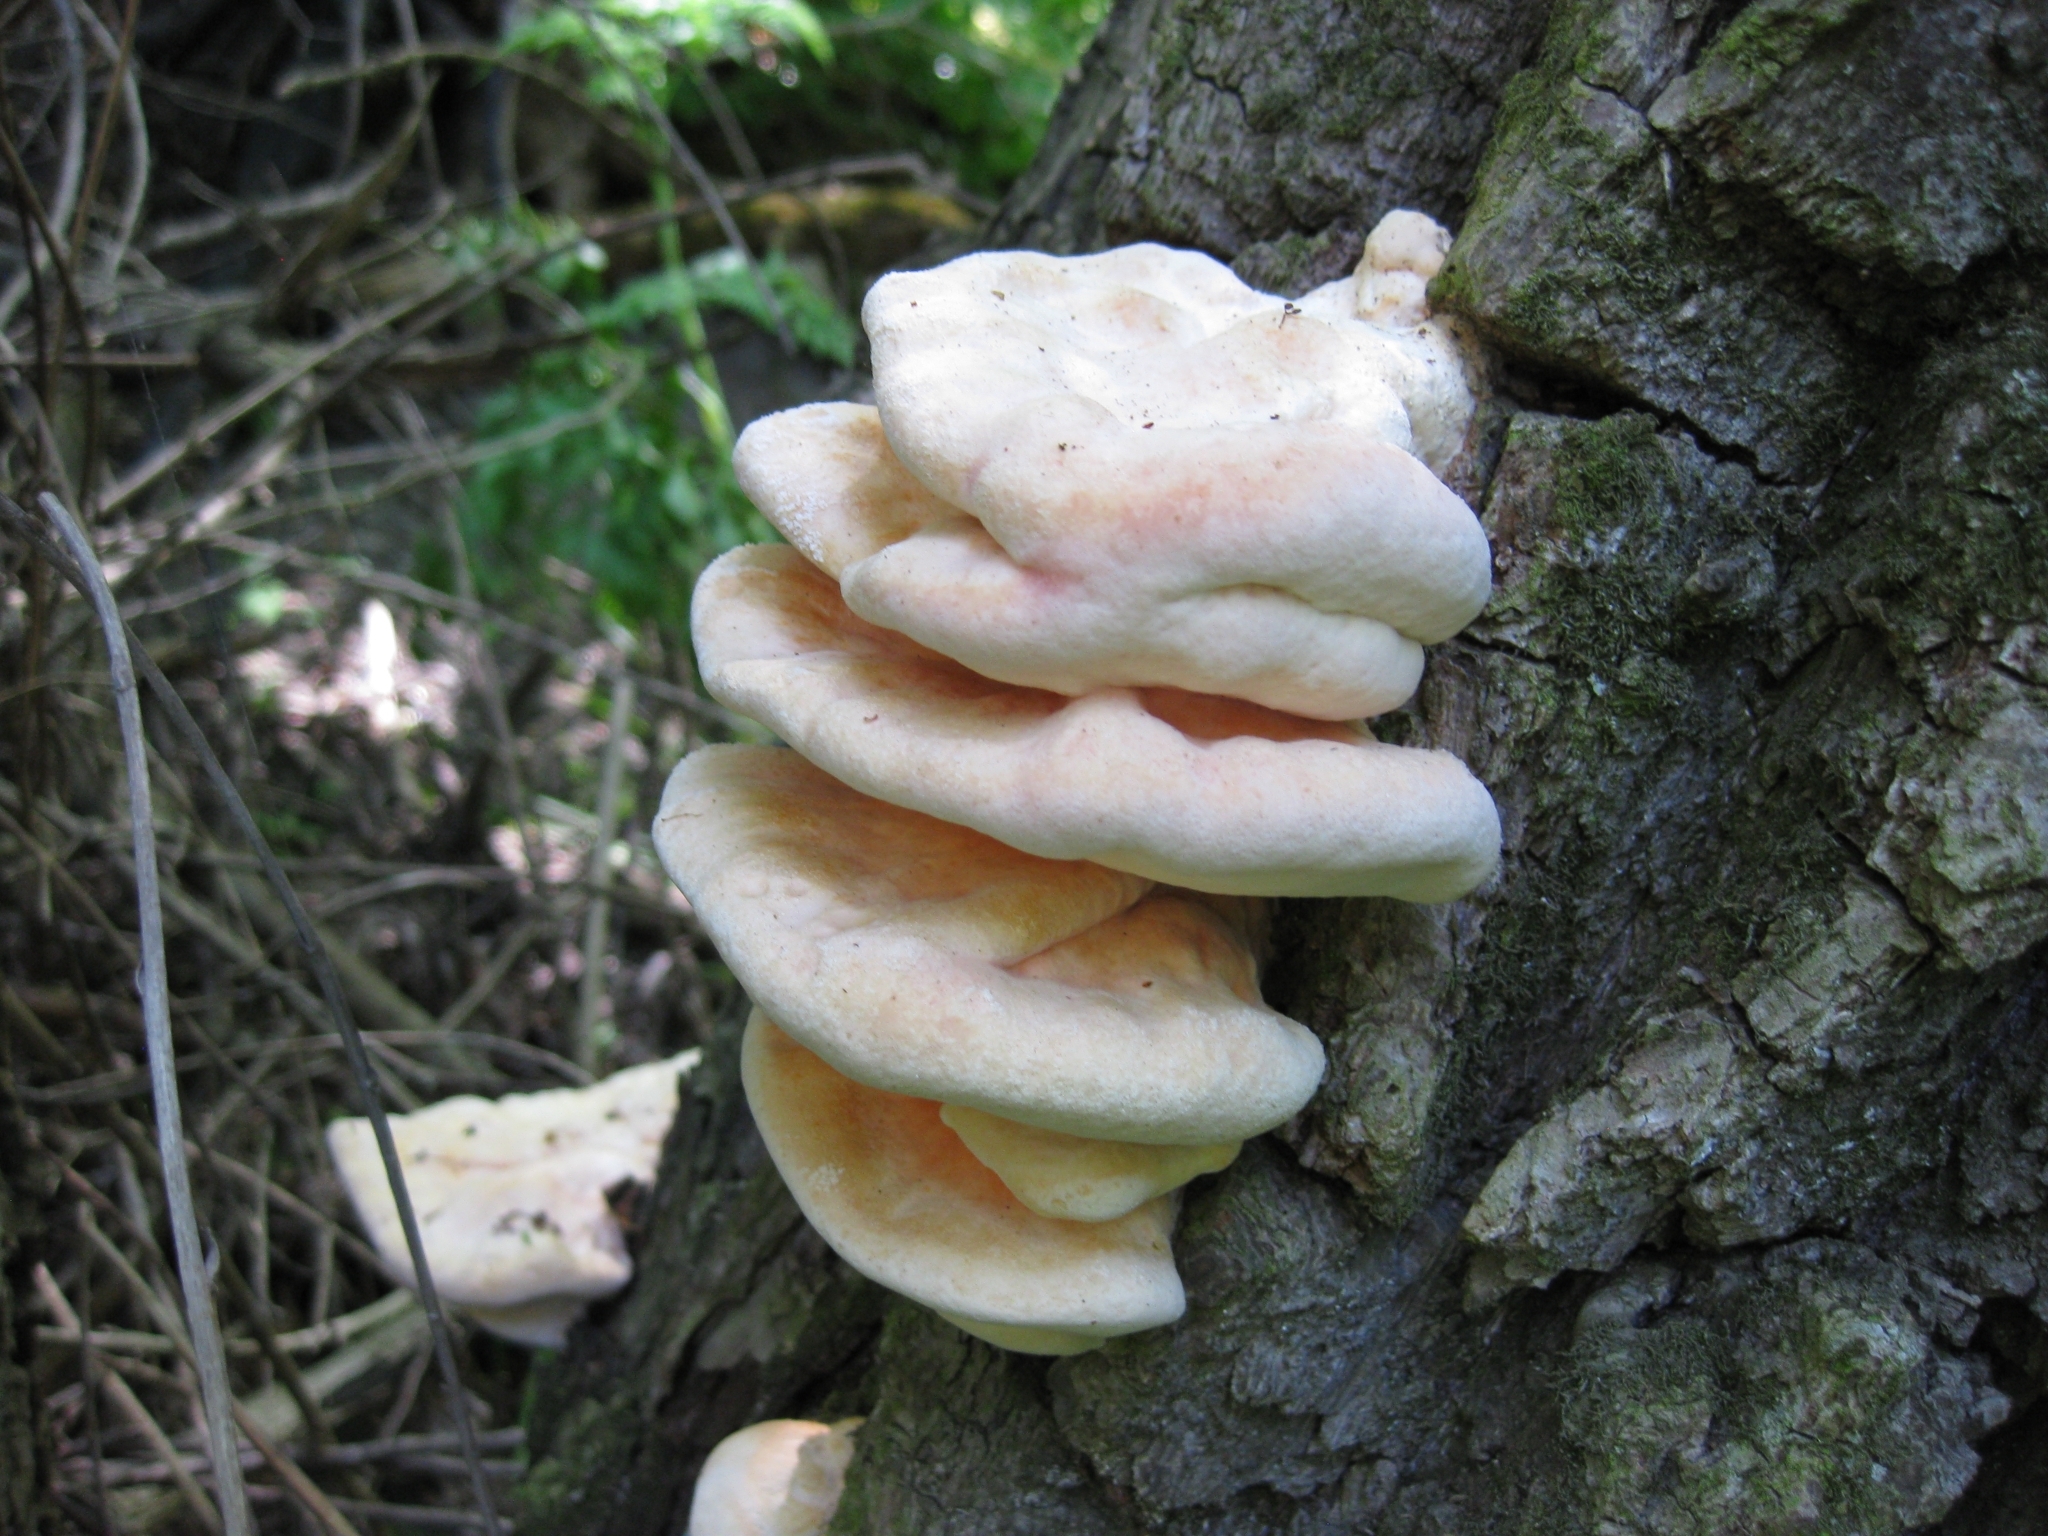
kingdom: Fungi
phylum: Basidiomycota
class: Agaricomycetes
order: Polyporales
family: Laetiporaceae
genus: Laetiporus
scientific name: Laetiporus sulphureus
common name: Chicken of the woods
